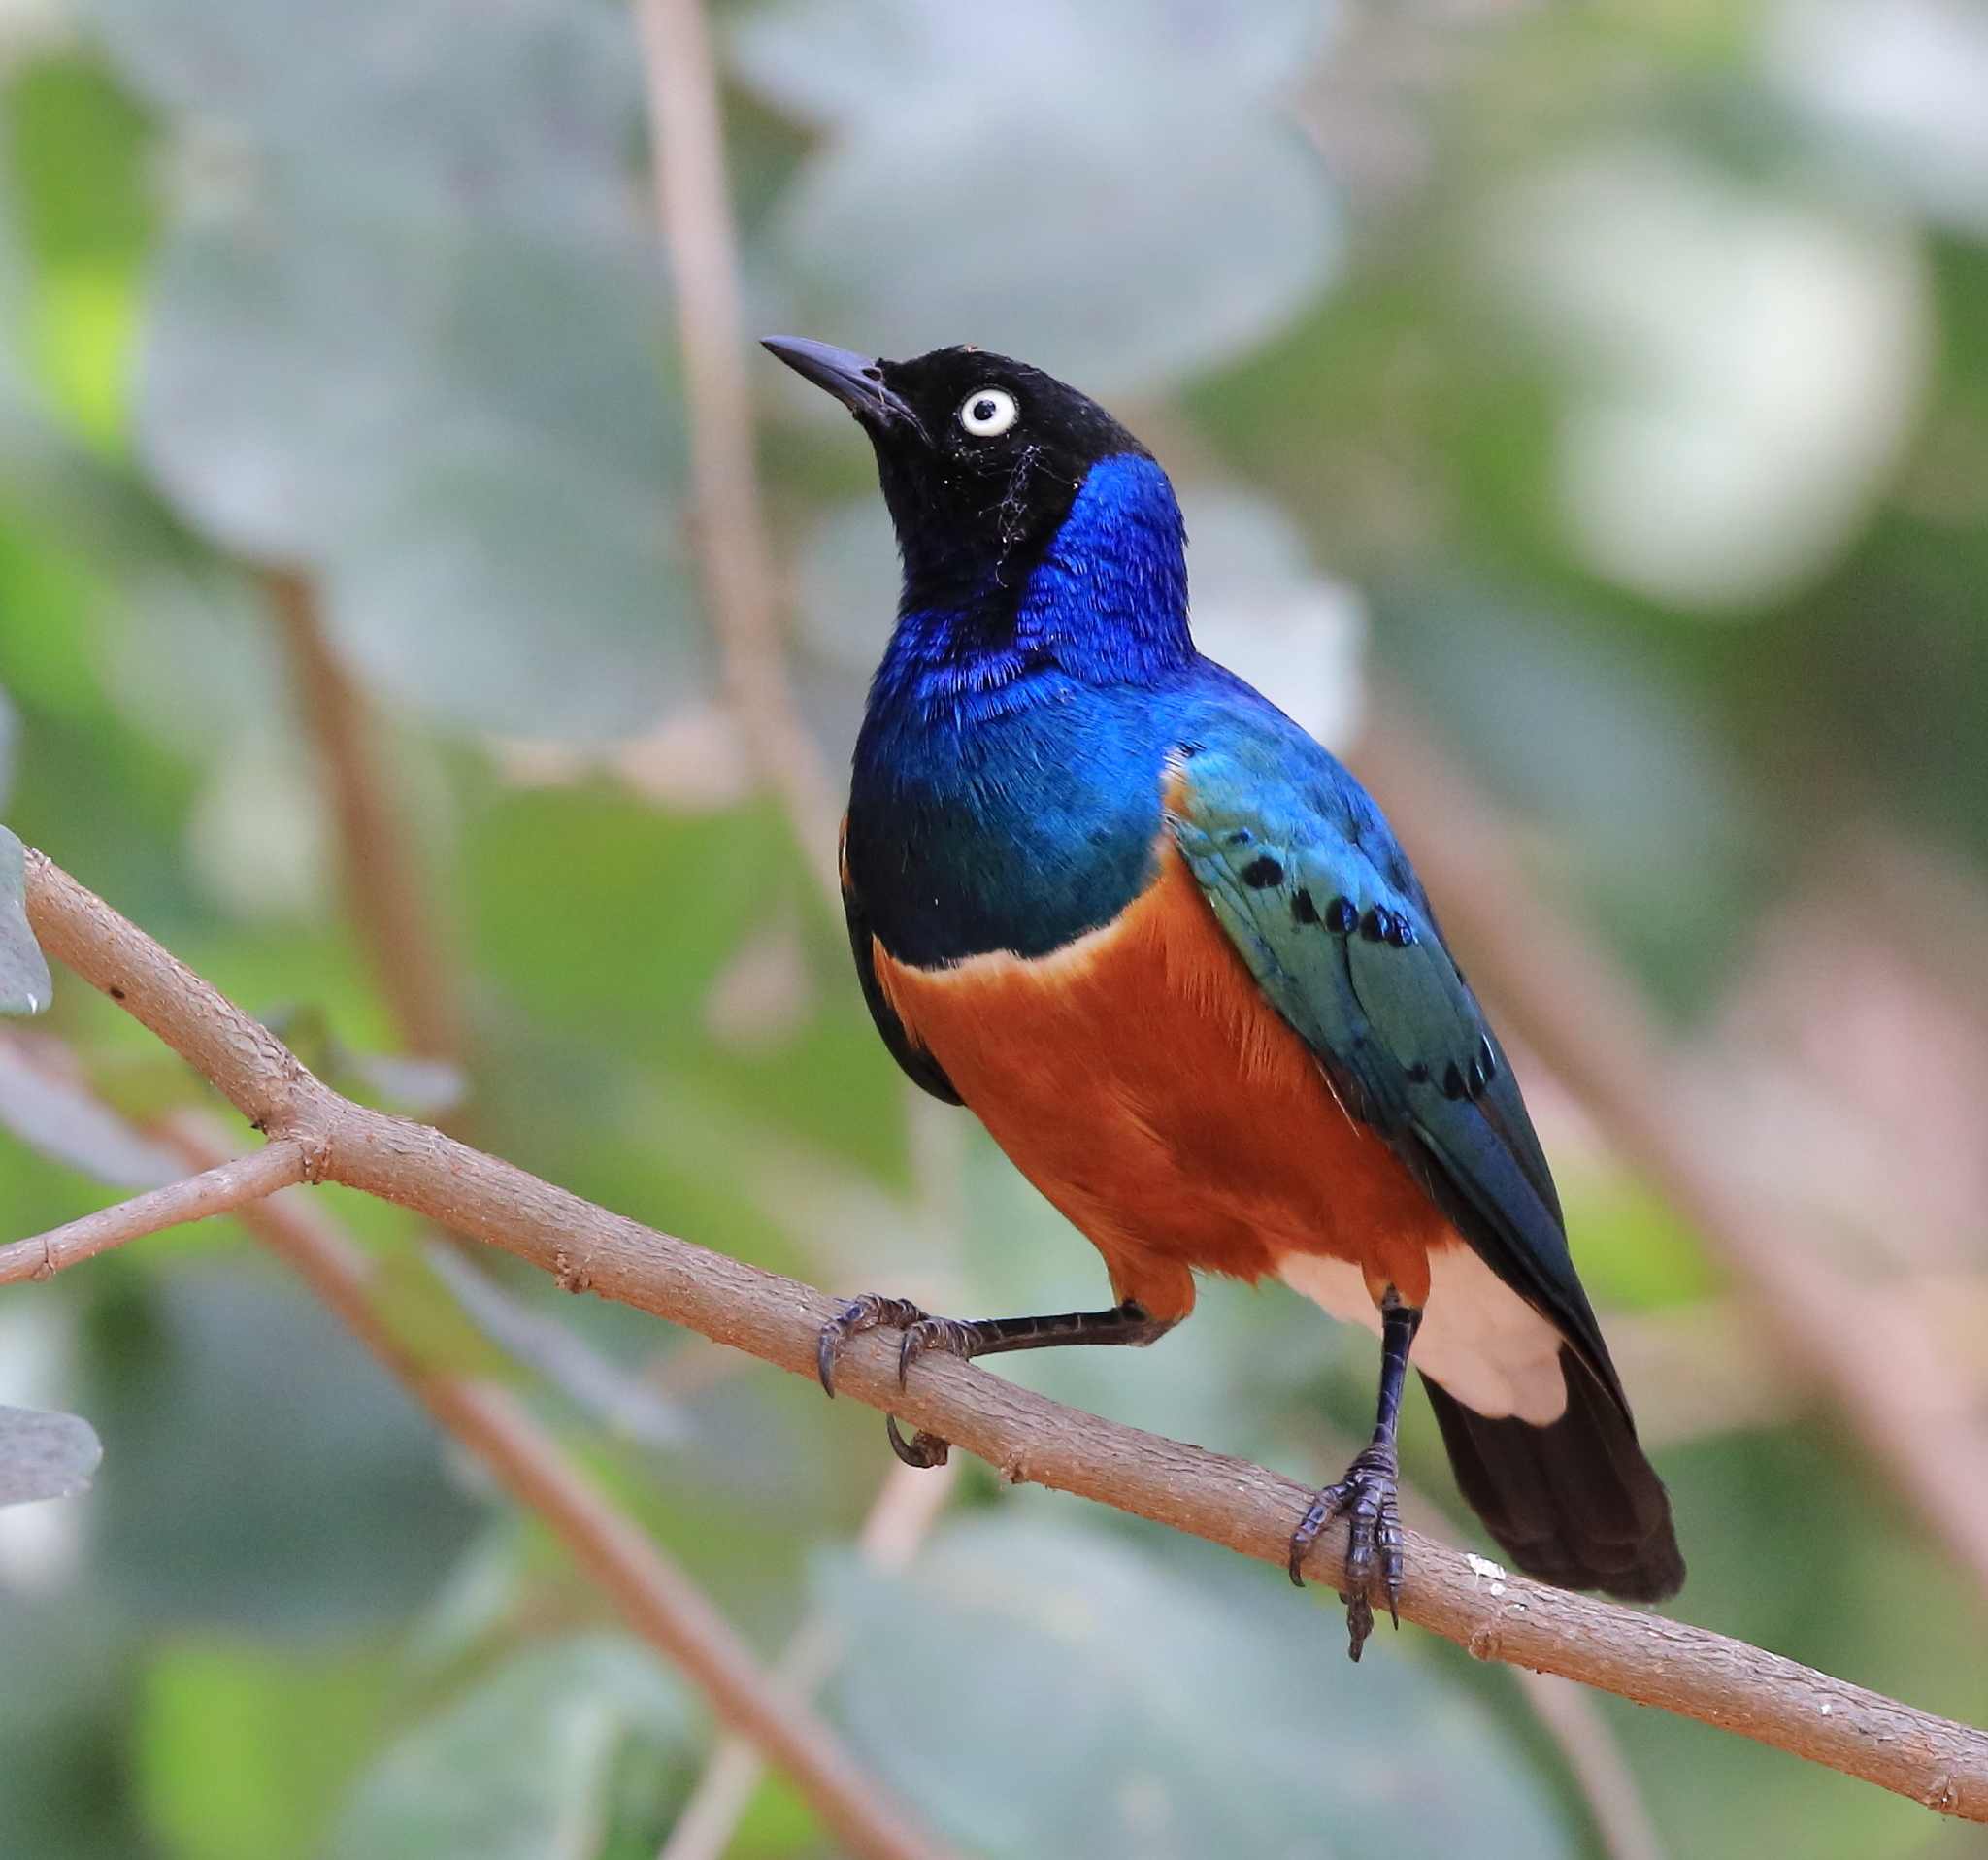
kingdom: Animalia
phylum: Chordata
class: Aves
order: Passeriformes
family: Sturnidae
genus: Lamprotornis
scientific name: Lamprotornis superbus
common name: Superb starling
